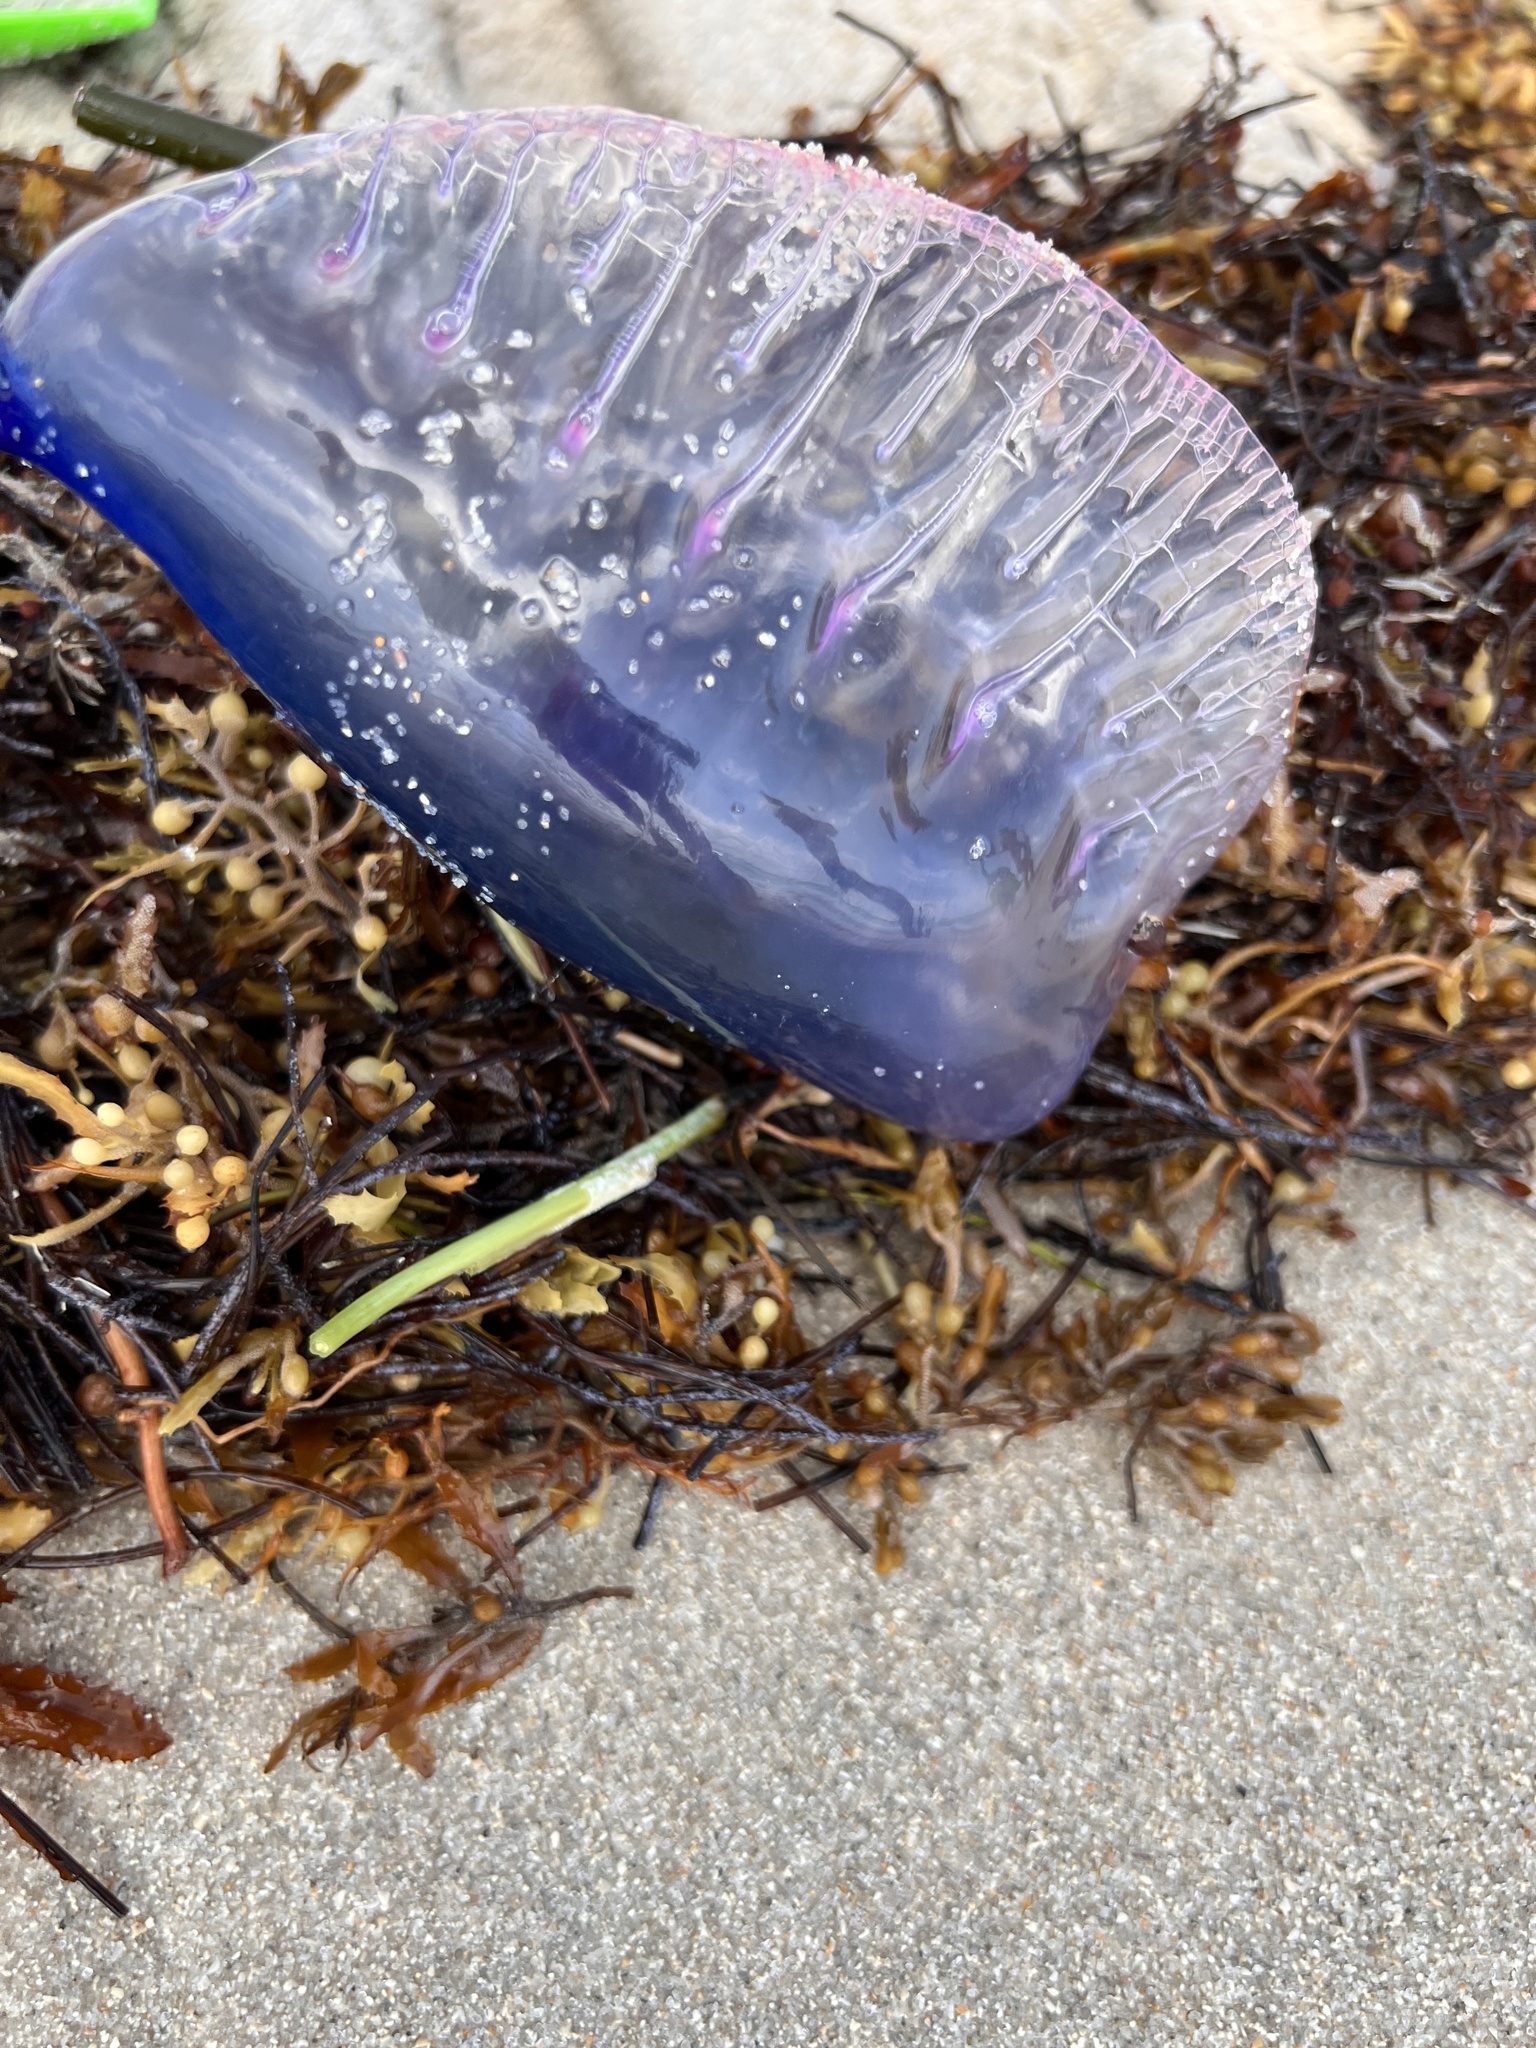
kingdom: Animalia
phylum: Cnidaria
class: Hydrozoa
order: Siphonophorae
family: Physaliidae
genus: Physalia
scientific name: Physalia physalis
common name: Portuguese man-of-war
